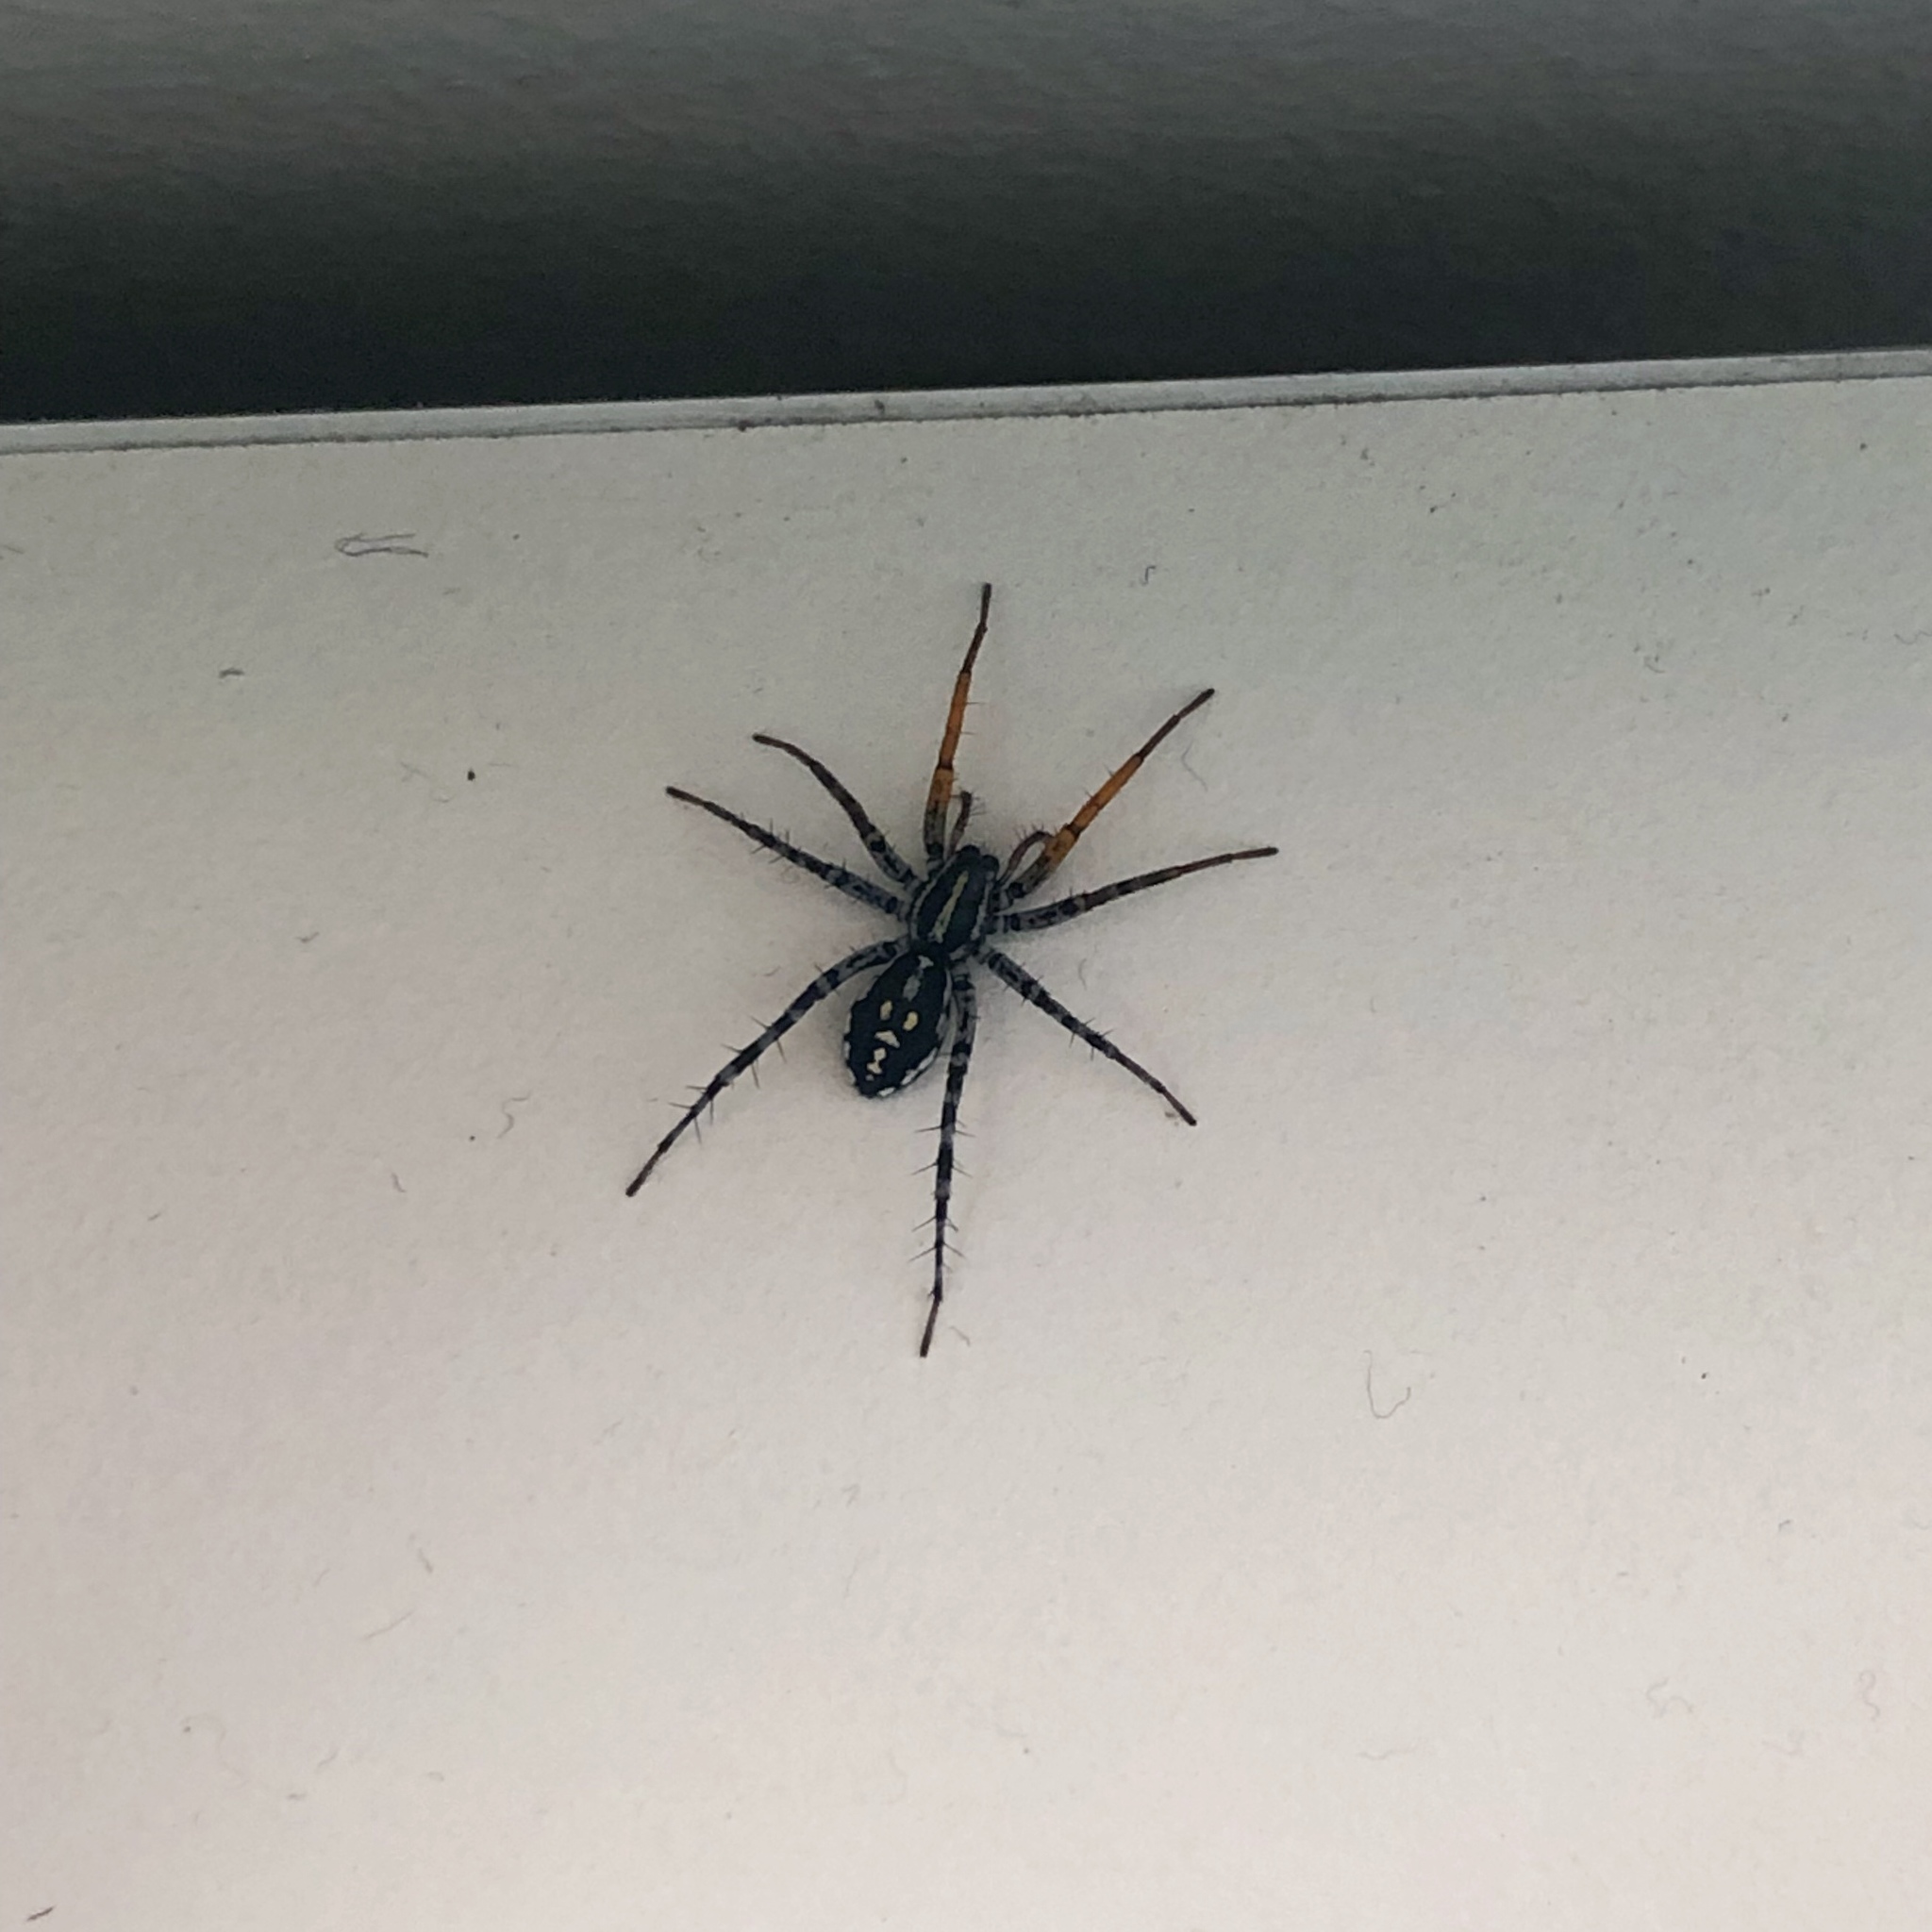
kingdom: Animalia
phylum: Arthropoda
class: Arachnida
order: Araneae
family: Corinnidae
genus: Nyssus
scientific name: Nyssus coloripes
